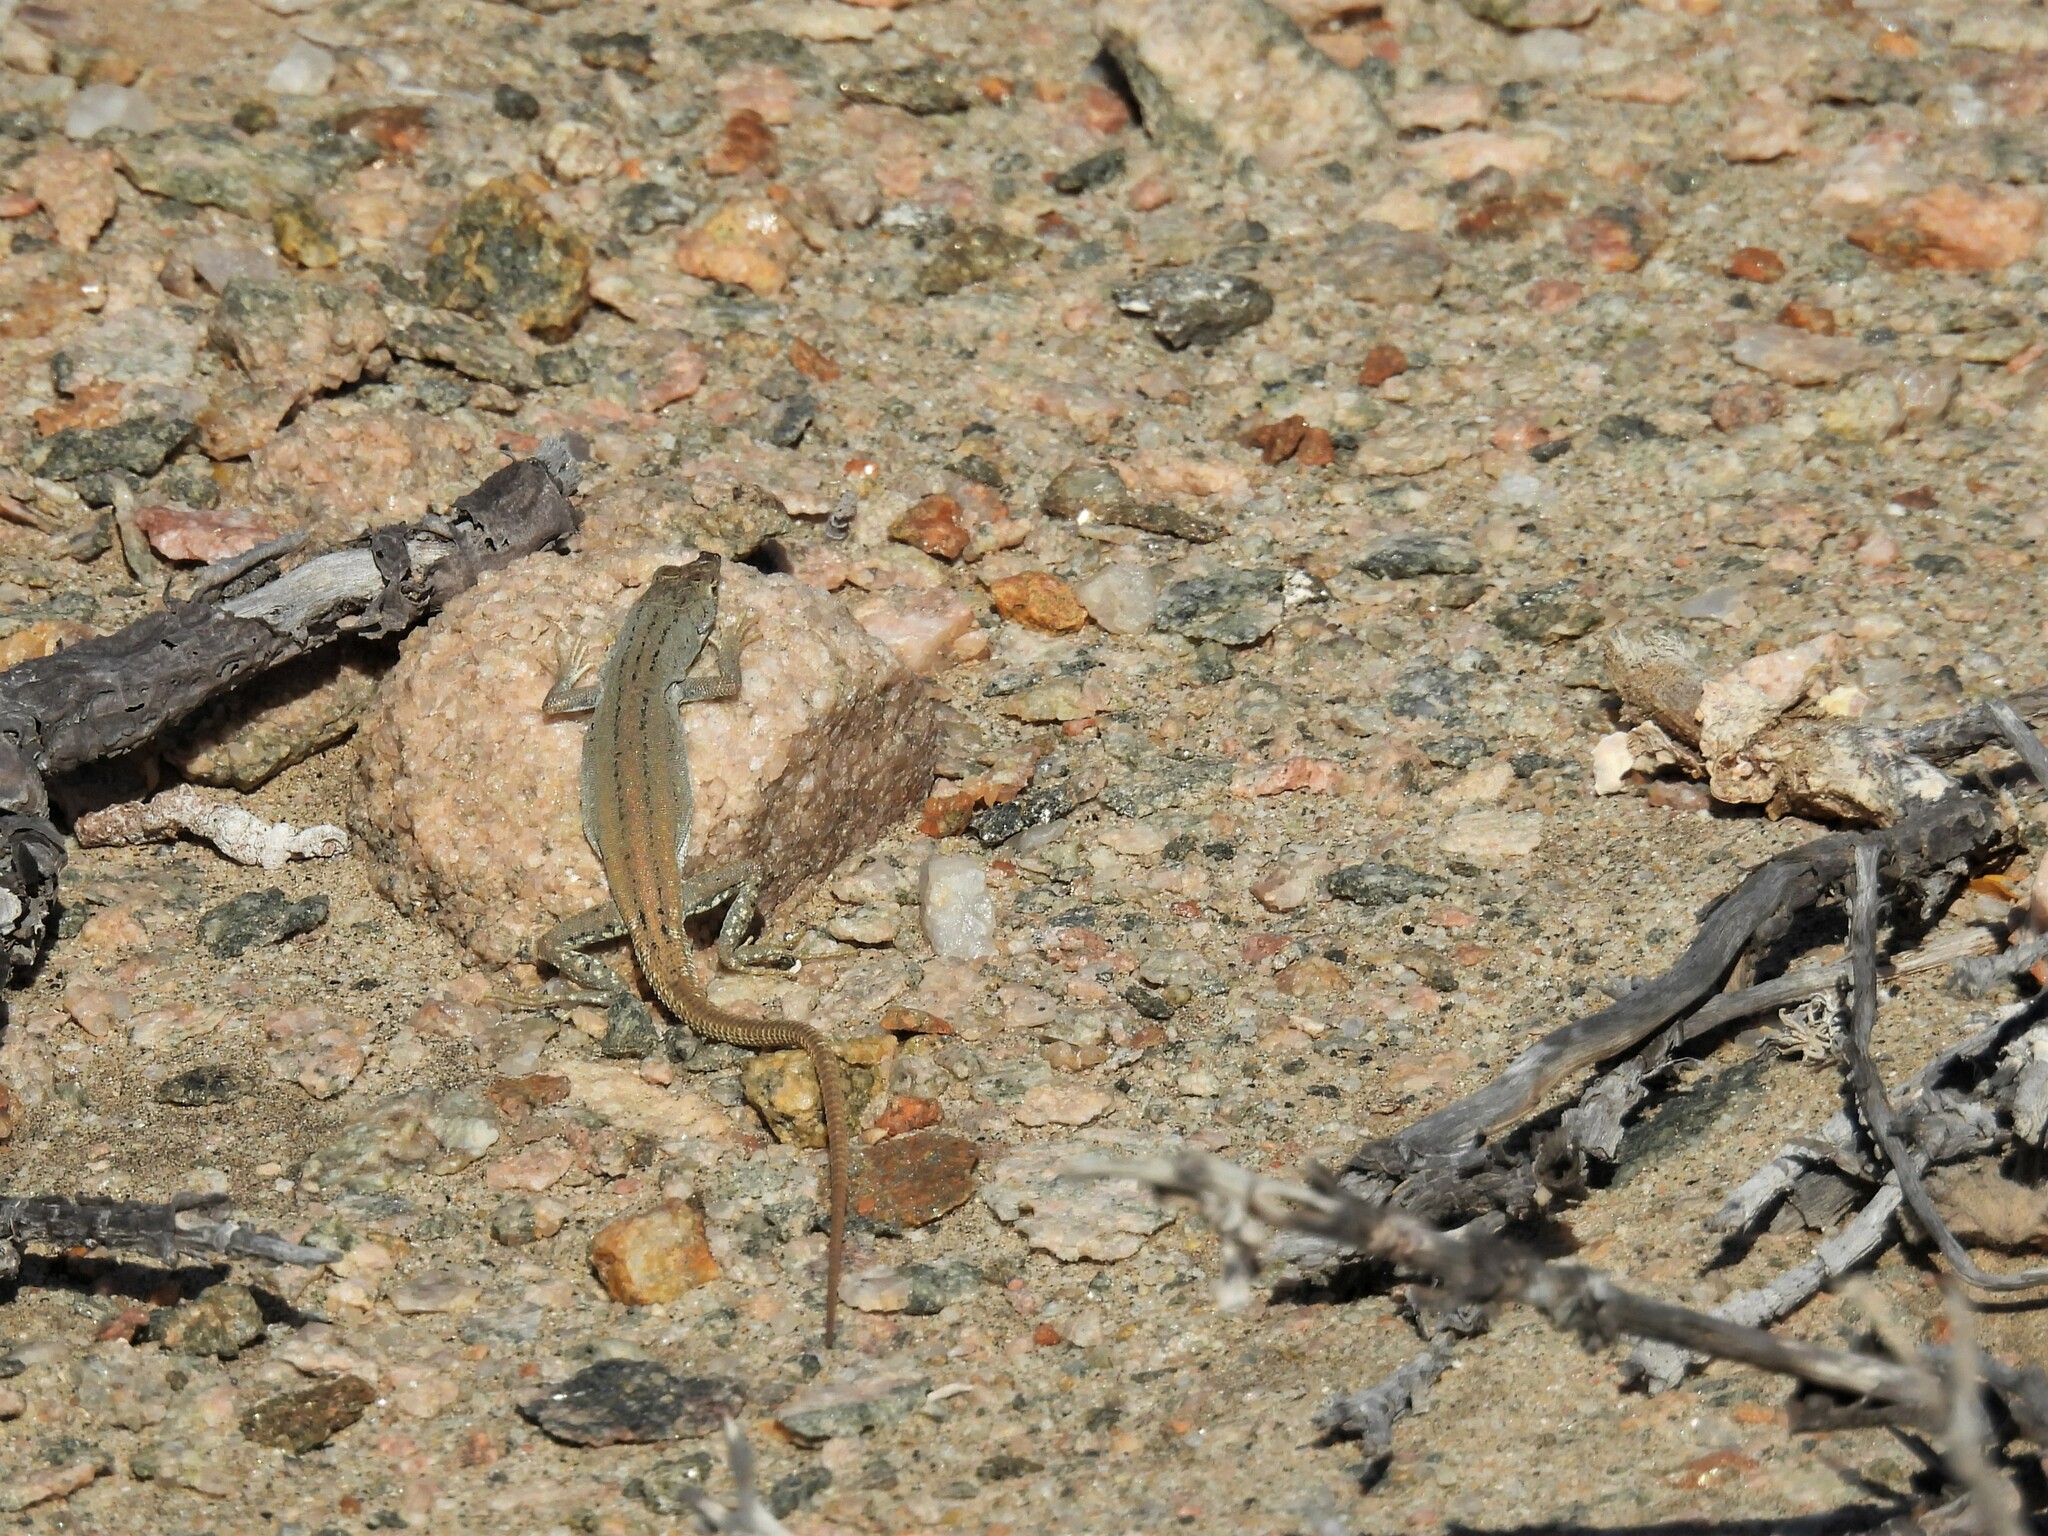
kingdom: Animalia
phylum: Chordata
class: Squamata
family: Lacertidae
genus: Pedioplanis
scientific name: Pedioplanis lineoocellata
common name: Spotted sand lizard
